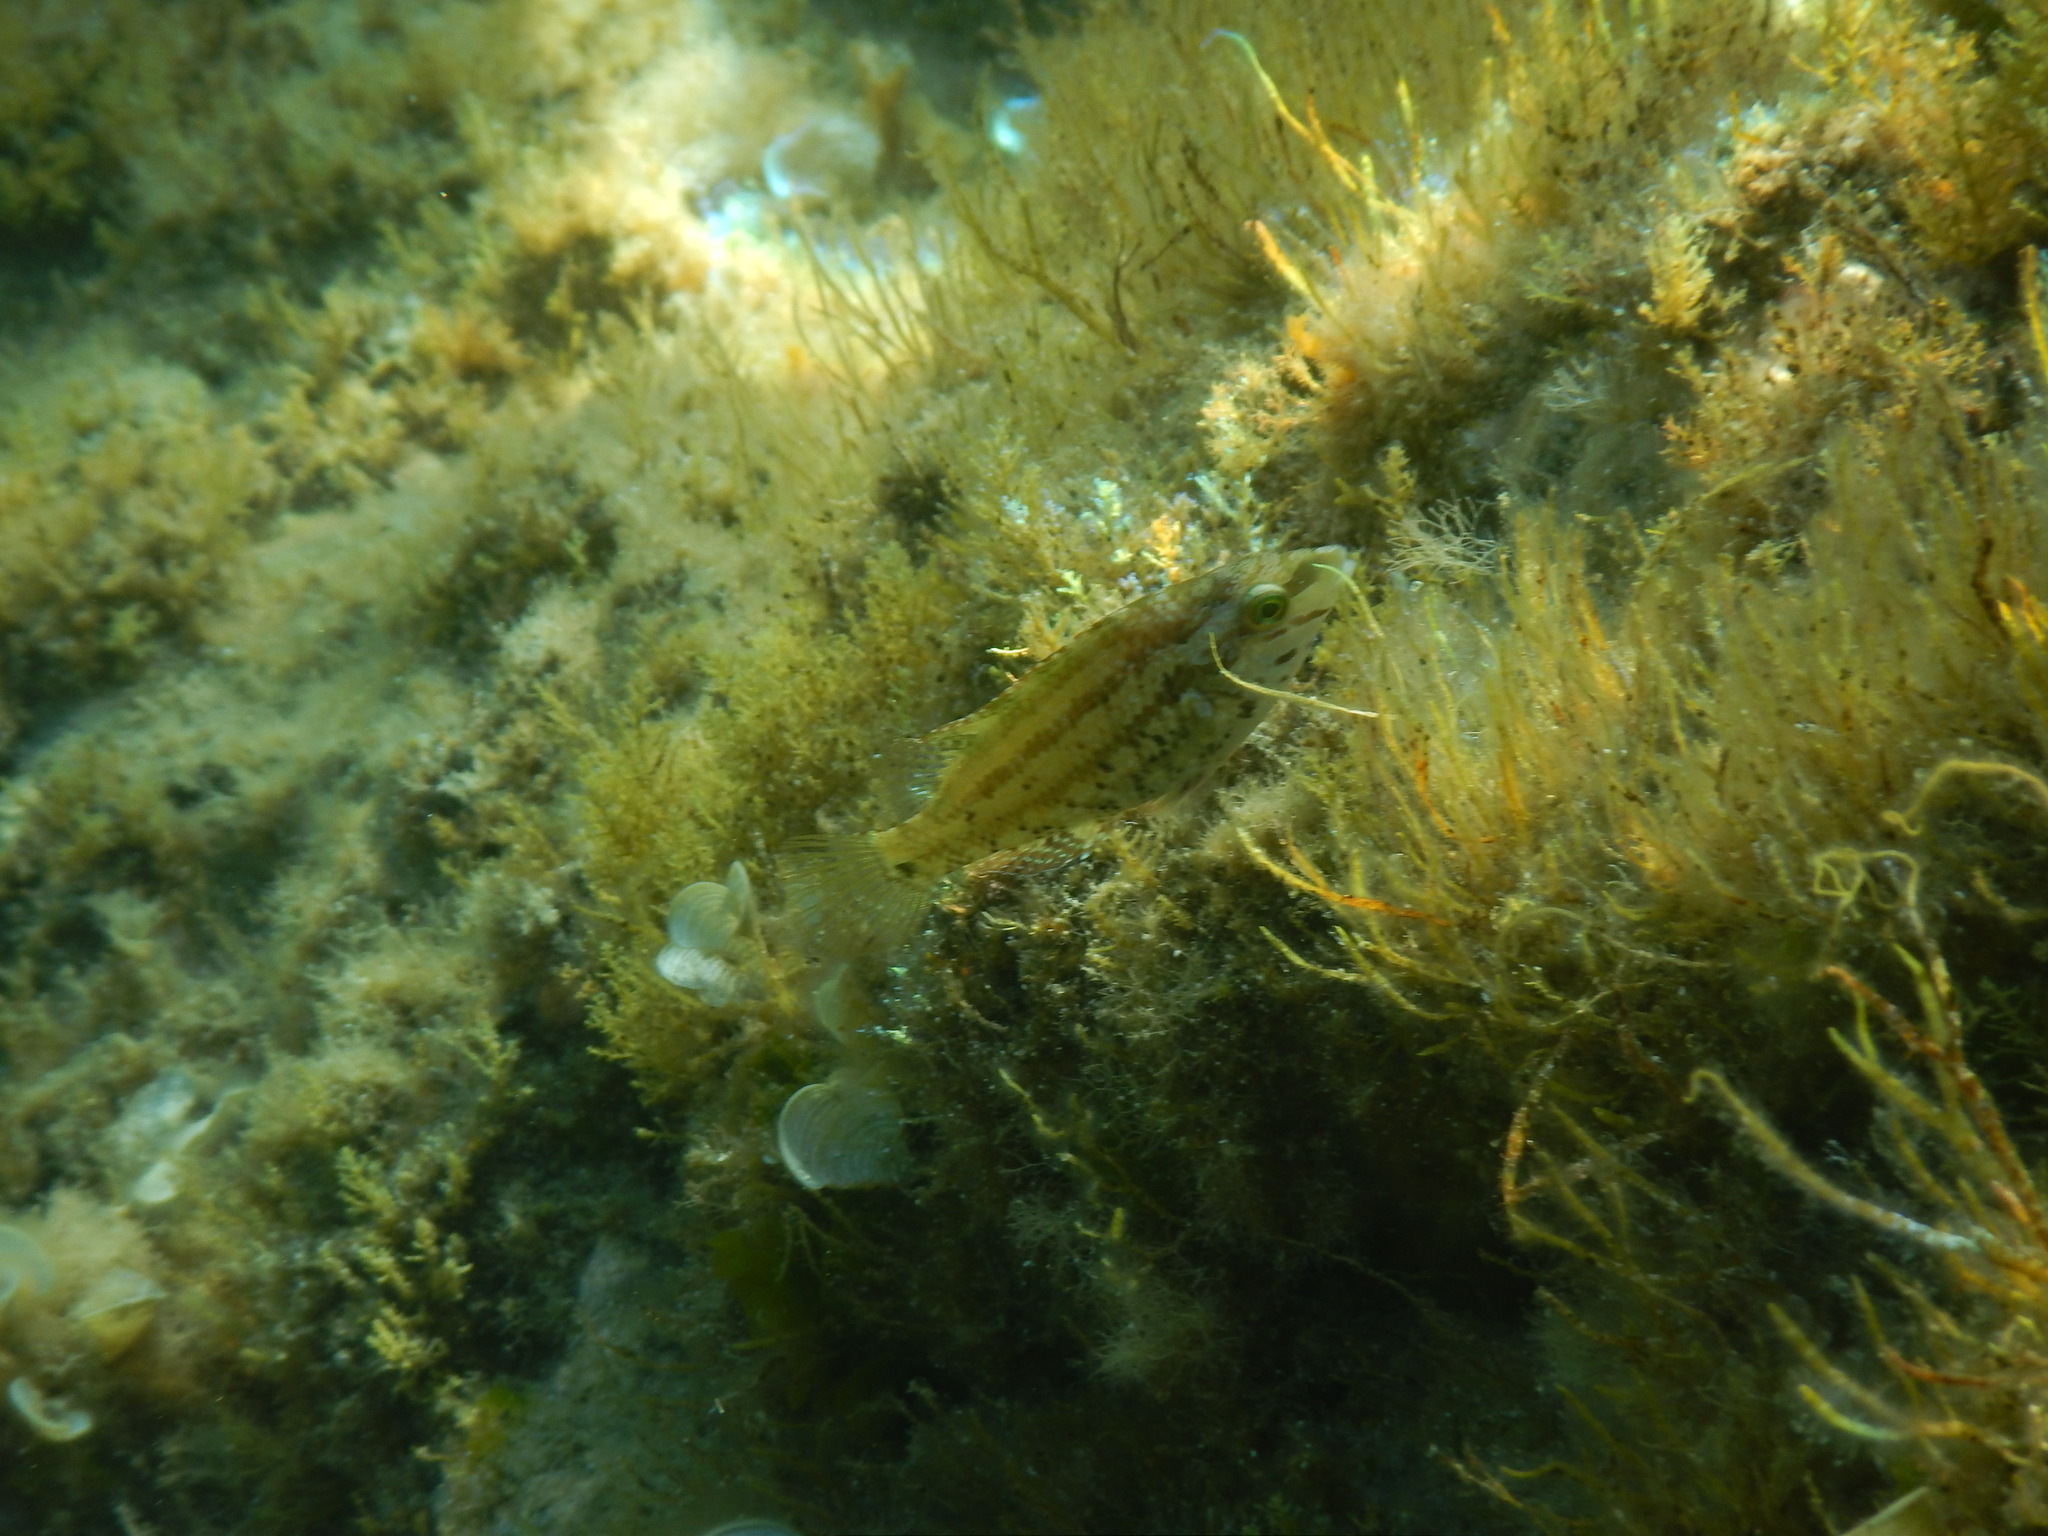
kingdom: Animalia
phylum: Chordata
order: Perciformes
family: Labridae
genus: Symphodus
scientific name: Symphodus roissali
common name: Five-spotted wrasse
